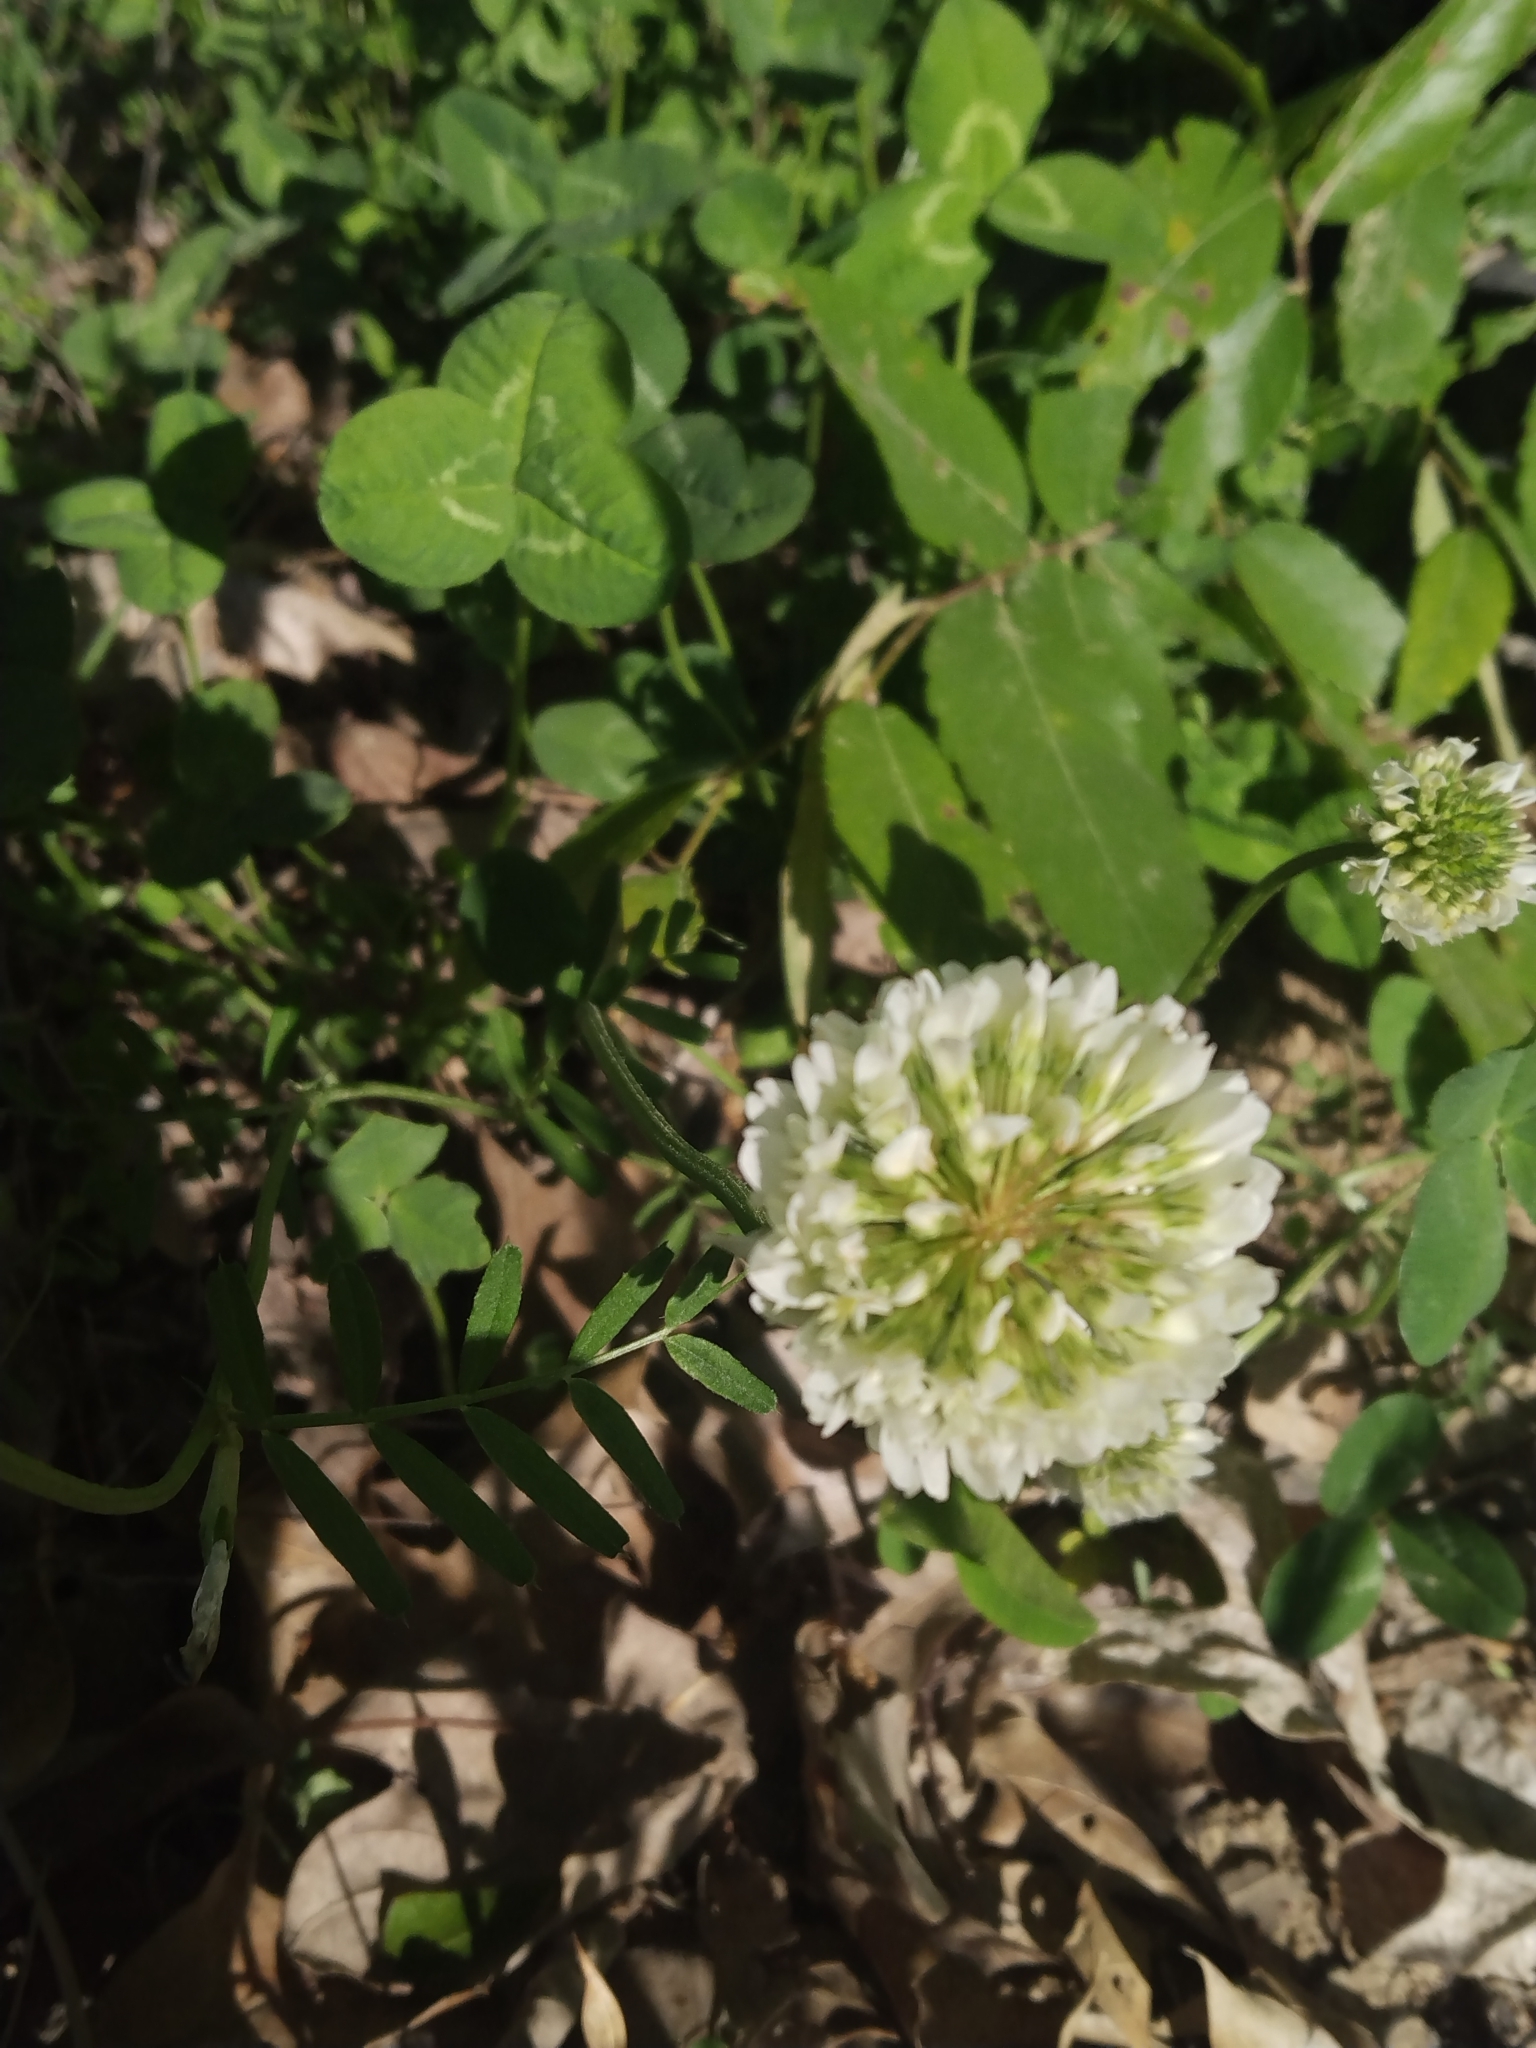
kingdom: Plantae
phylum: Tracheophyta
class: Magnoliopsida
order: Fabales
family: Fabaceae
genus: Trifolium
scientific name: Trifolium repens
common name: White clover
